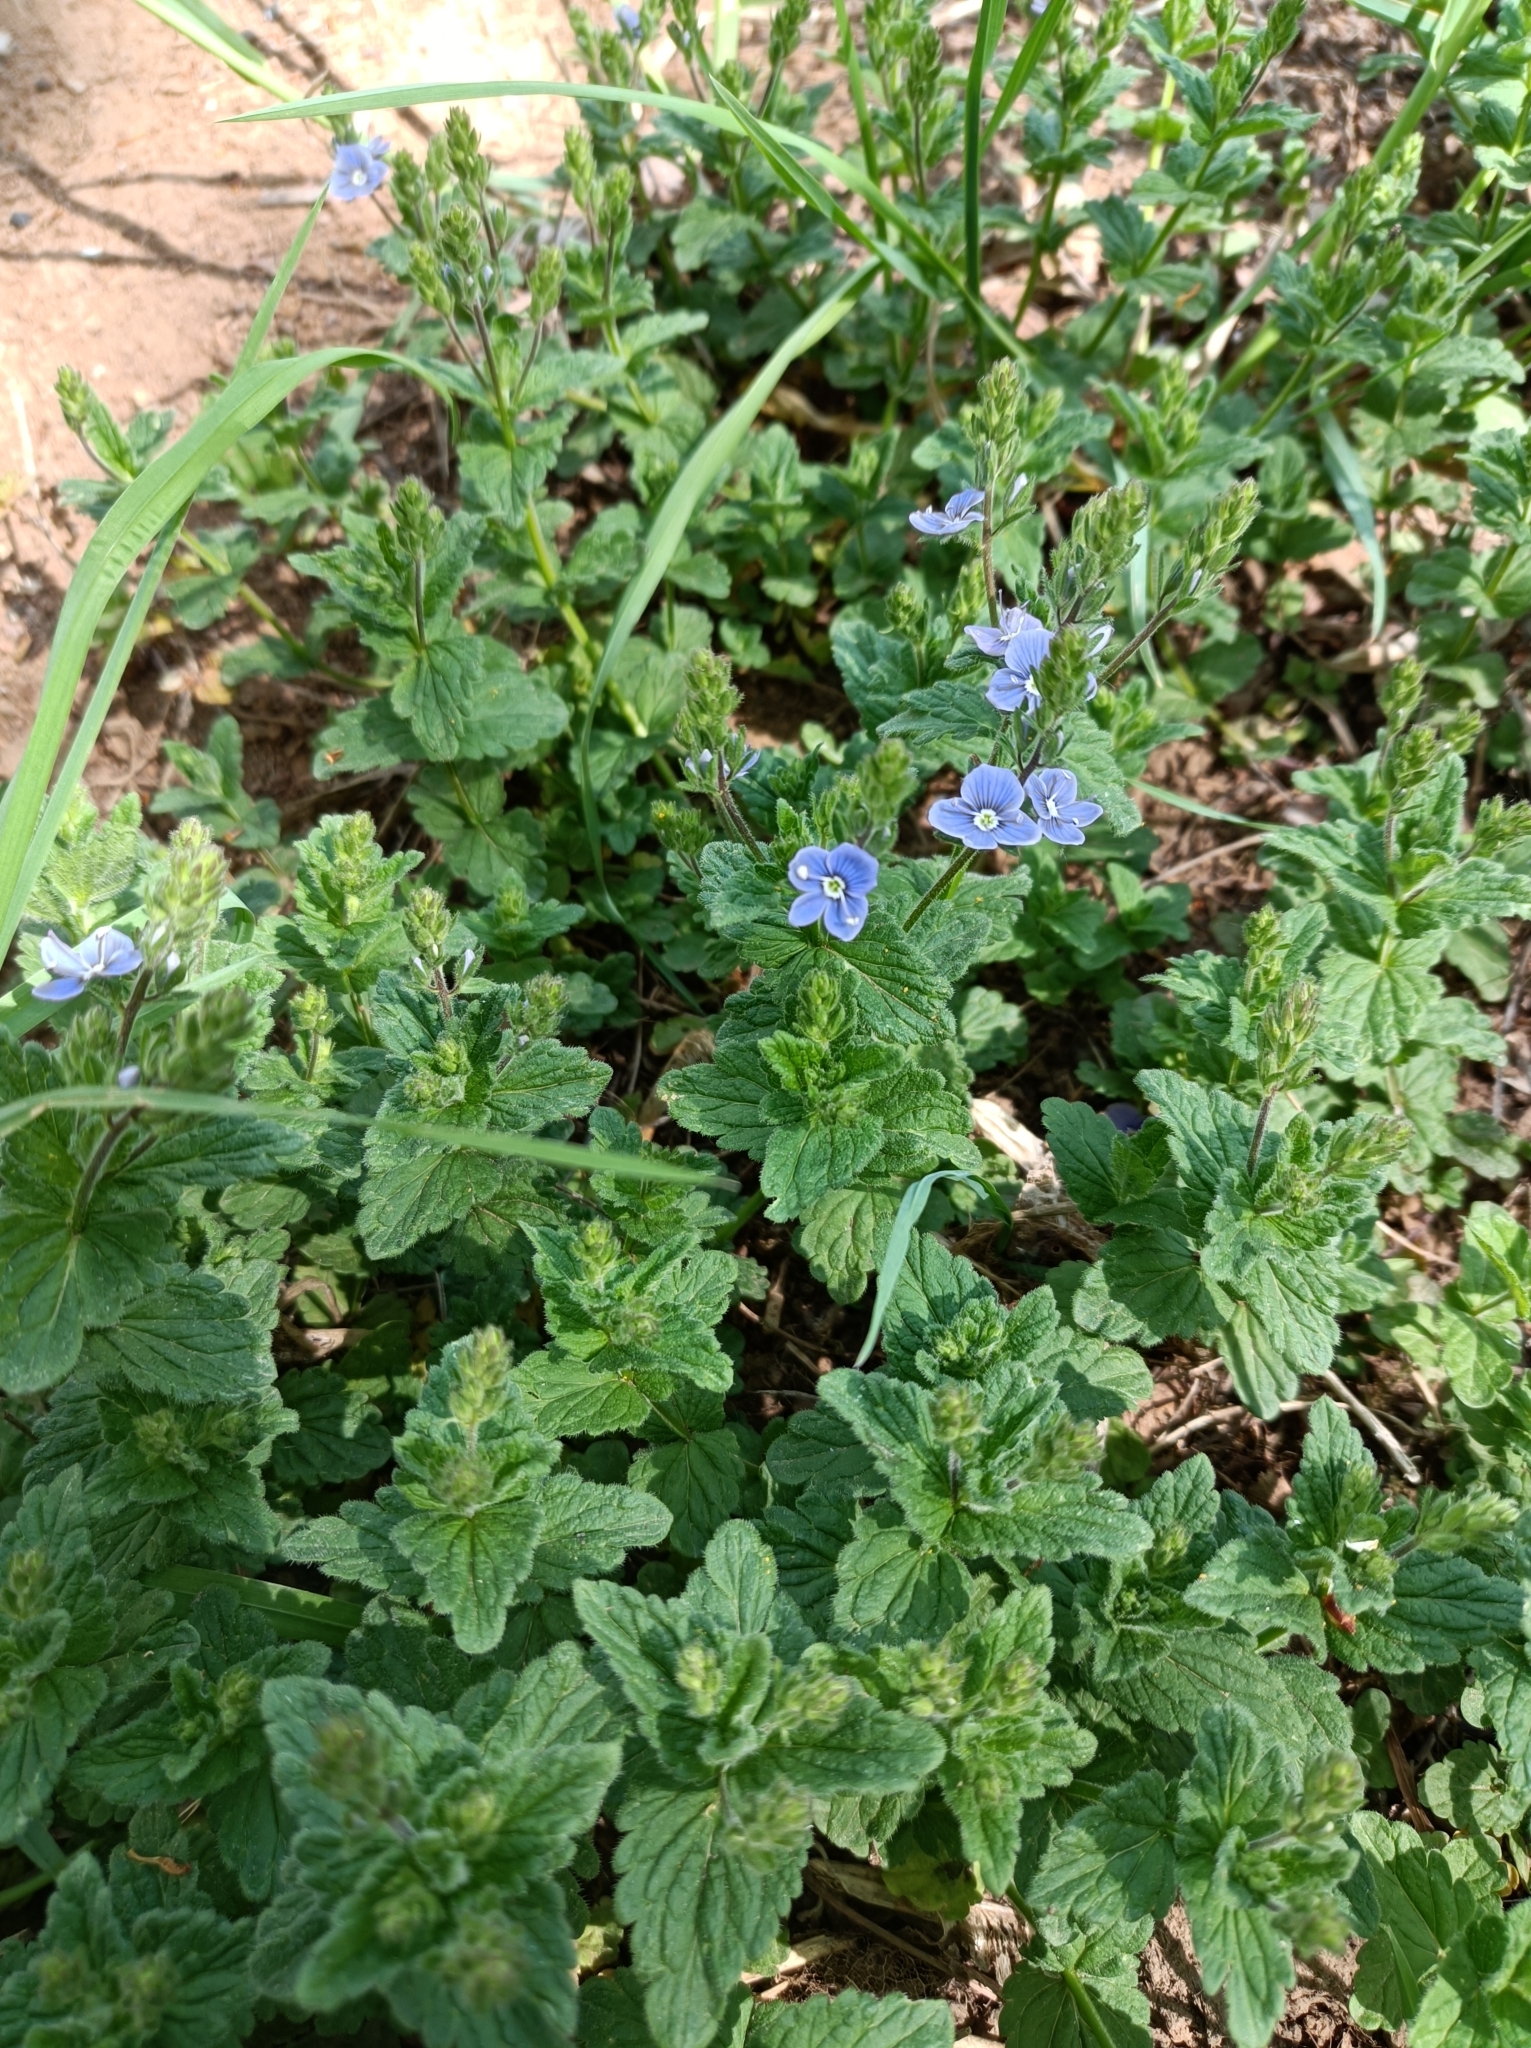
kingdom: Plantae
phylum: Tracheophyta
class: Magnoliopsida
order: Lamiales
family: Plantaginaceae
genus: Veronica
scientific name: Veronica chamaedrys
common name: Germander speedwell
